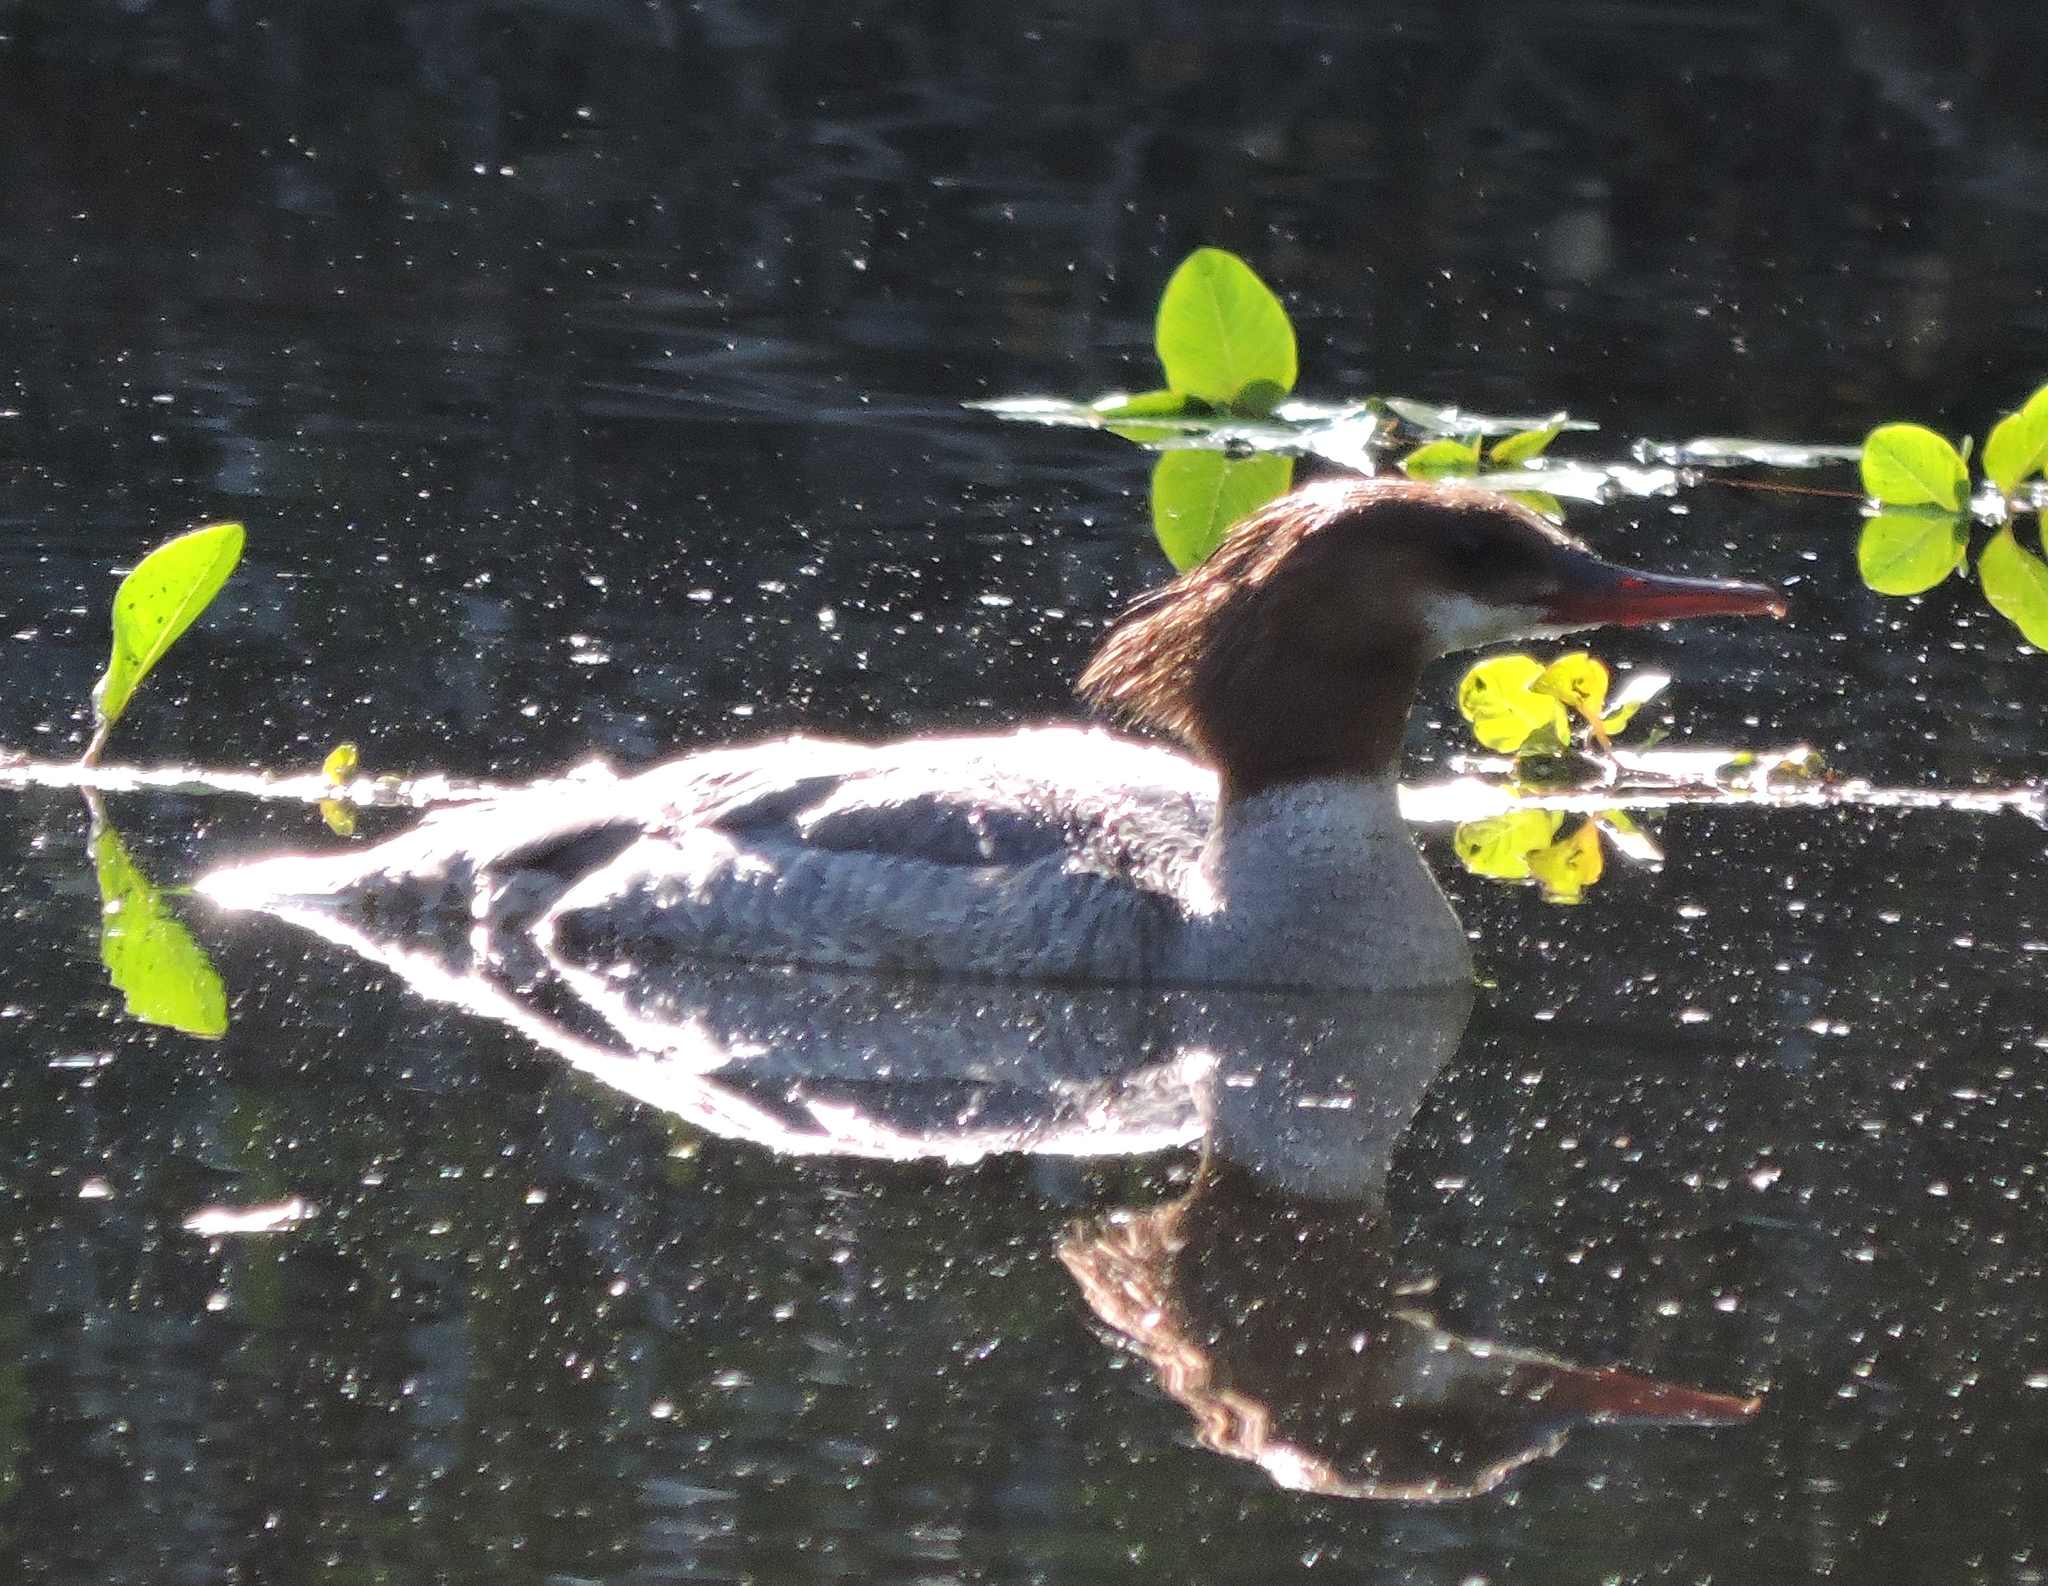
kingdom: Animalia
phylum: Chordata
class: Aves
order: Anseriformes
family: Anatidae
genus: Mergus
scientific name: Mergus merganser
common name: Common merganser
